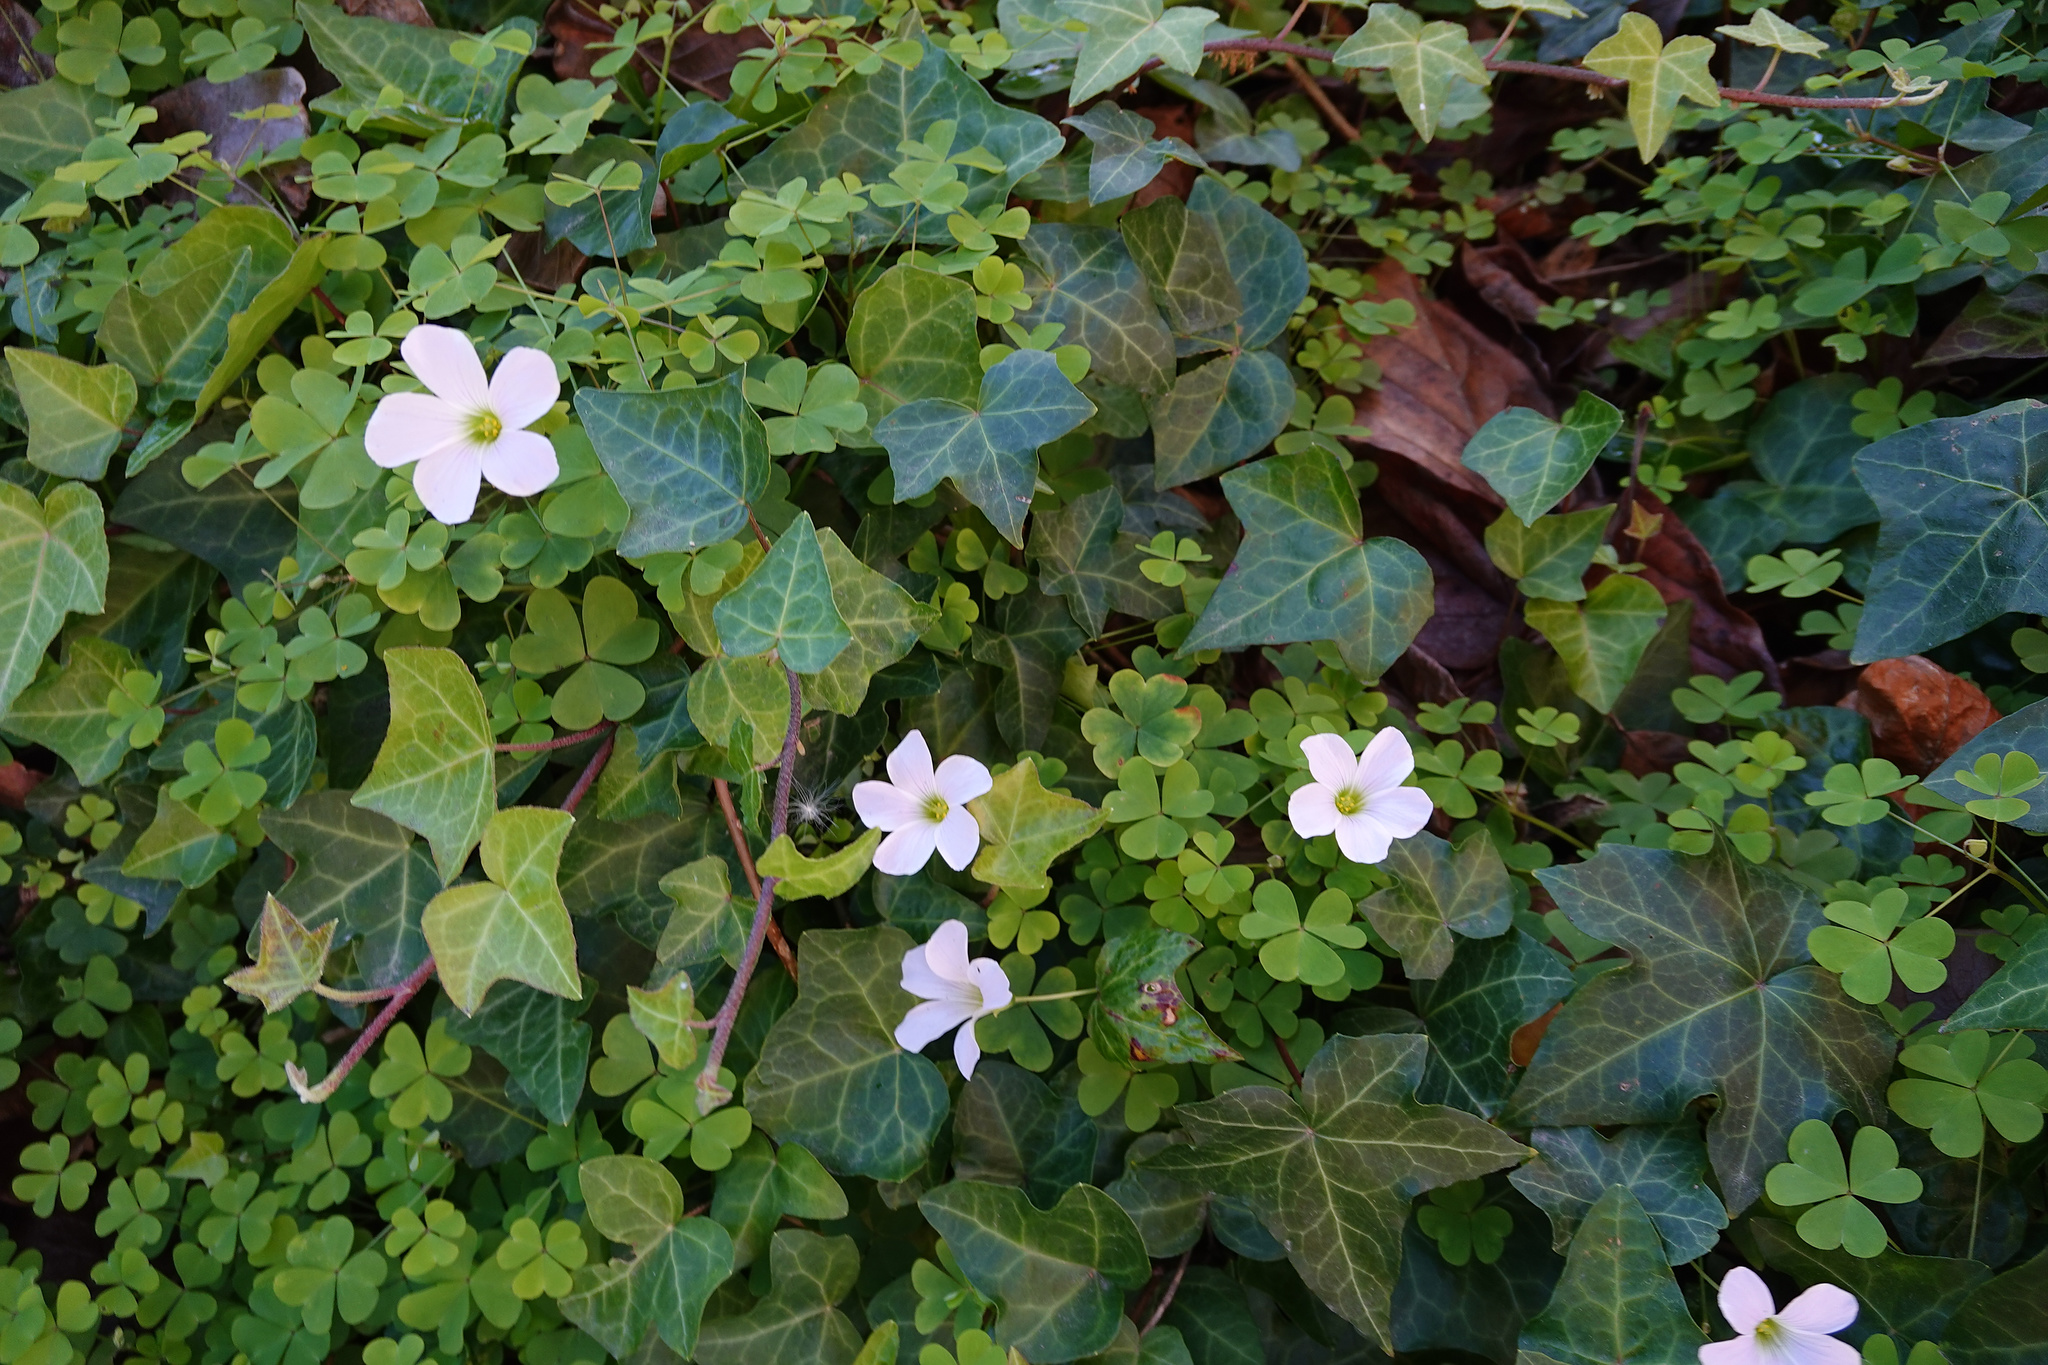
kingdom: Plantae
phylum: Tracheophyta
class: Magnoliopsida
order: Oxalidales
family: Oxalidaceae
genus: Oxalis
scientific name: Oxalis incarnata
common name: Pale pink-sorrel
